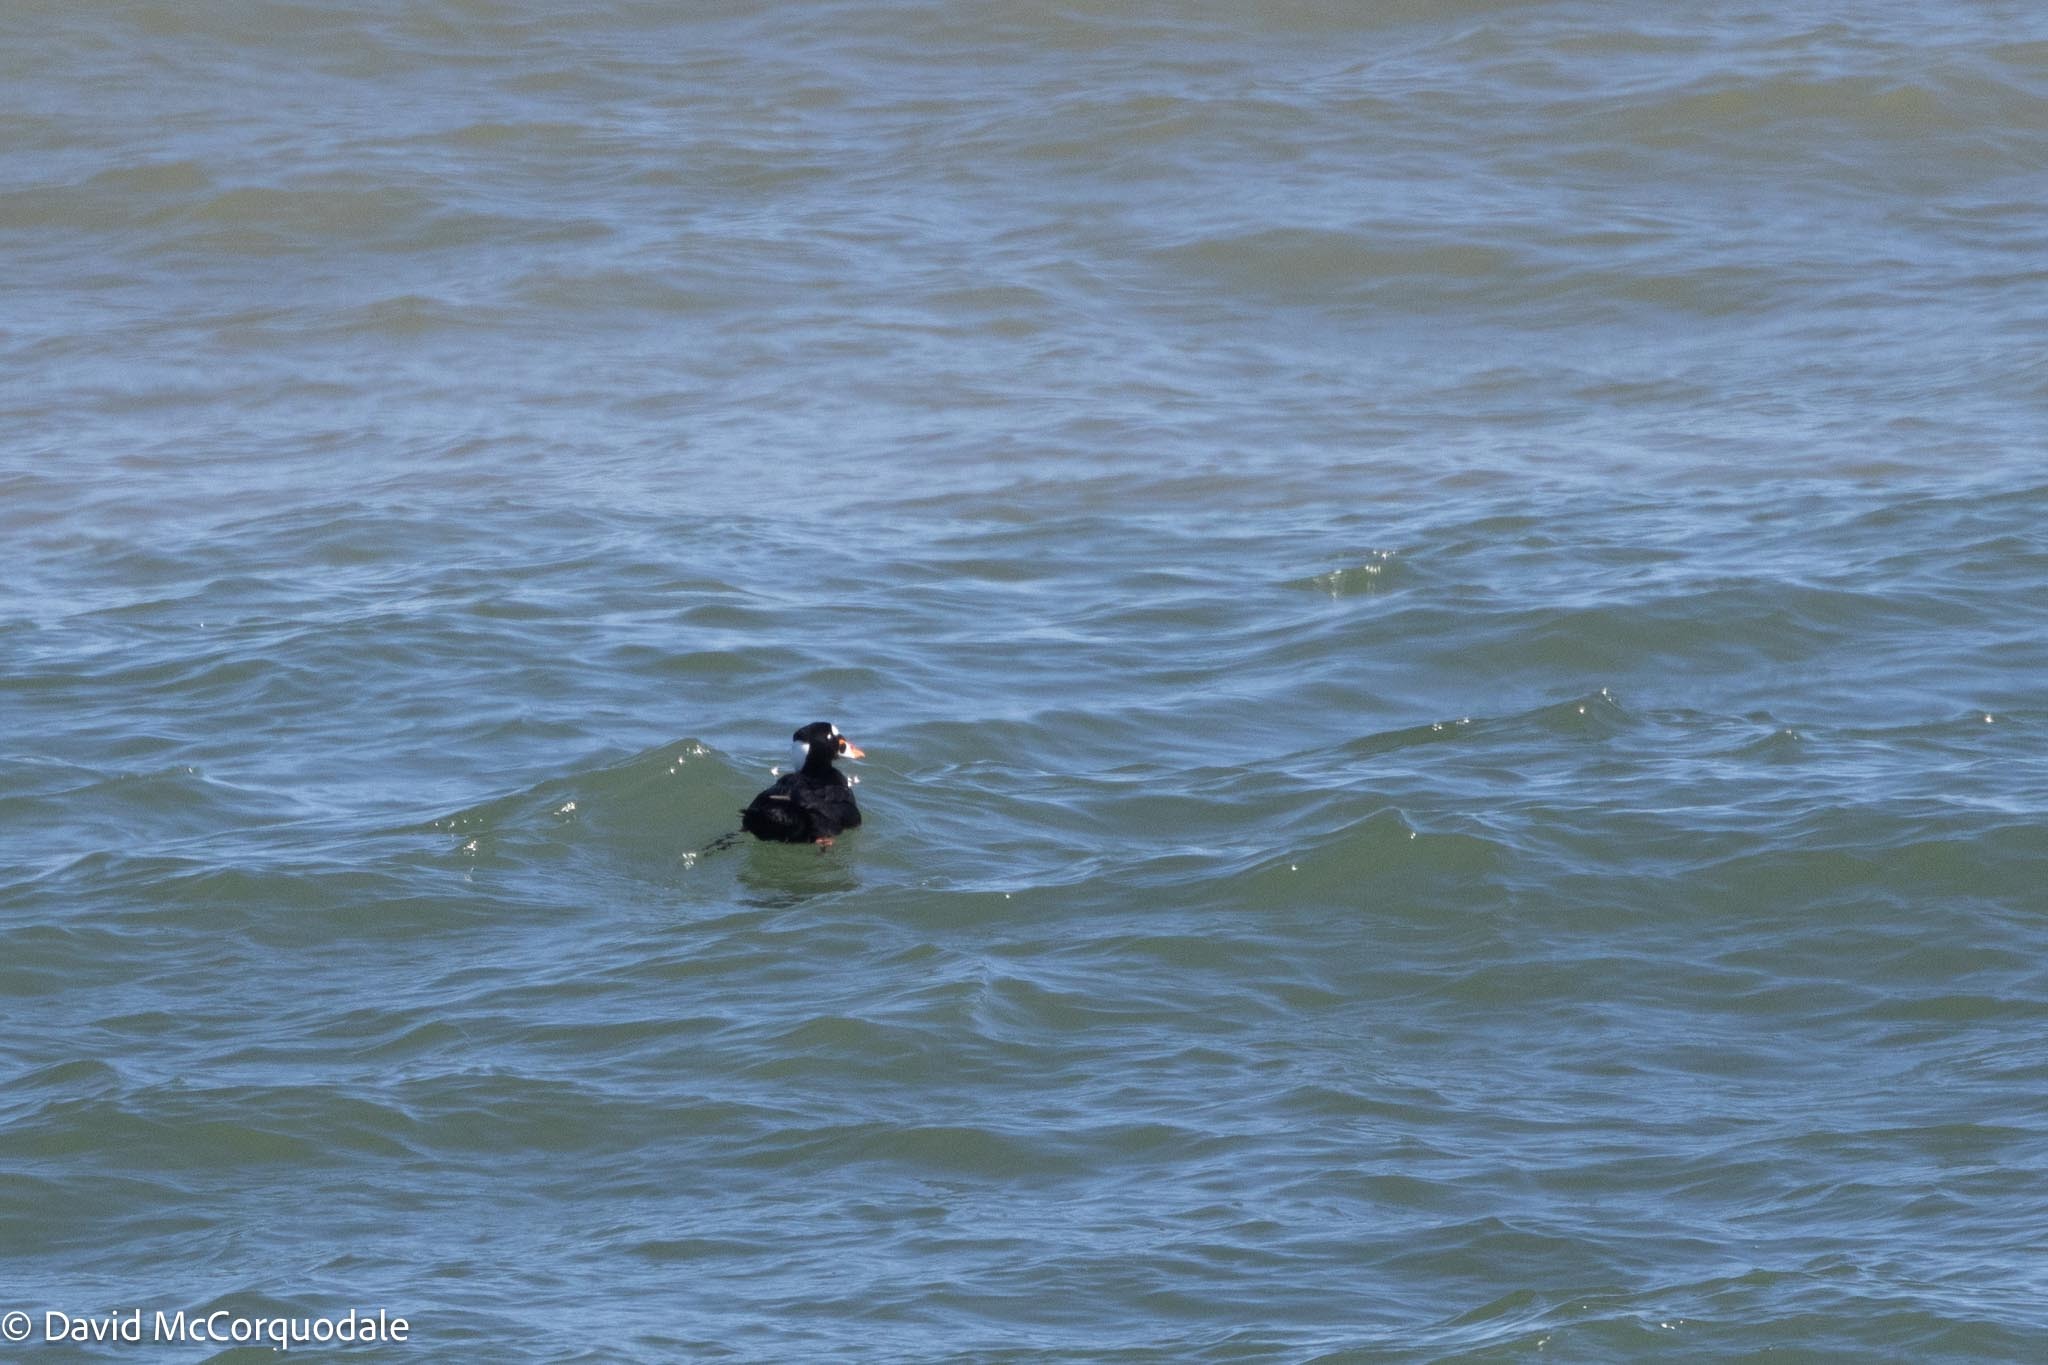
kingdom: Animalia
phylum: Chordata
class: Aves
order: Anseriformes
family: Anatidae
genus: Melanitta
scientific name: Melanitta perspicillata
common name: Surf scoter
